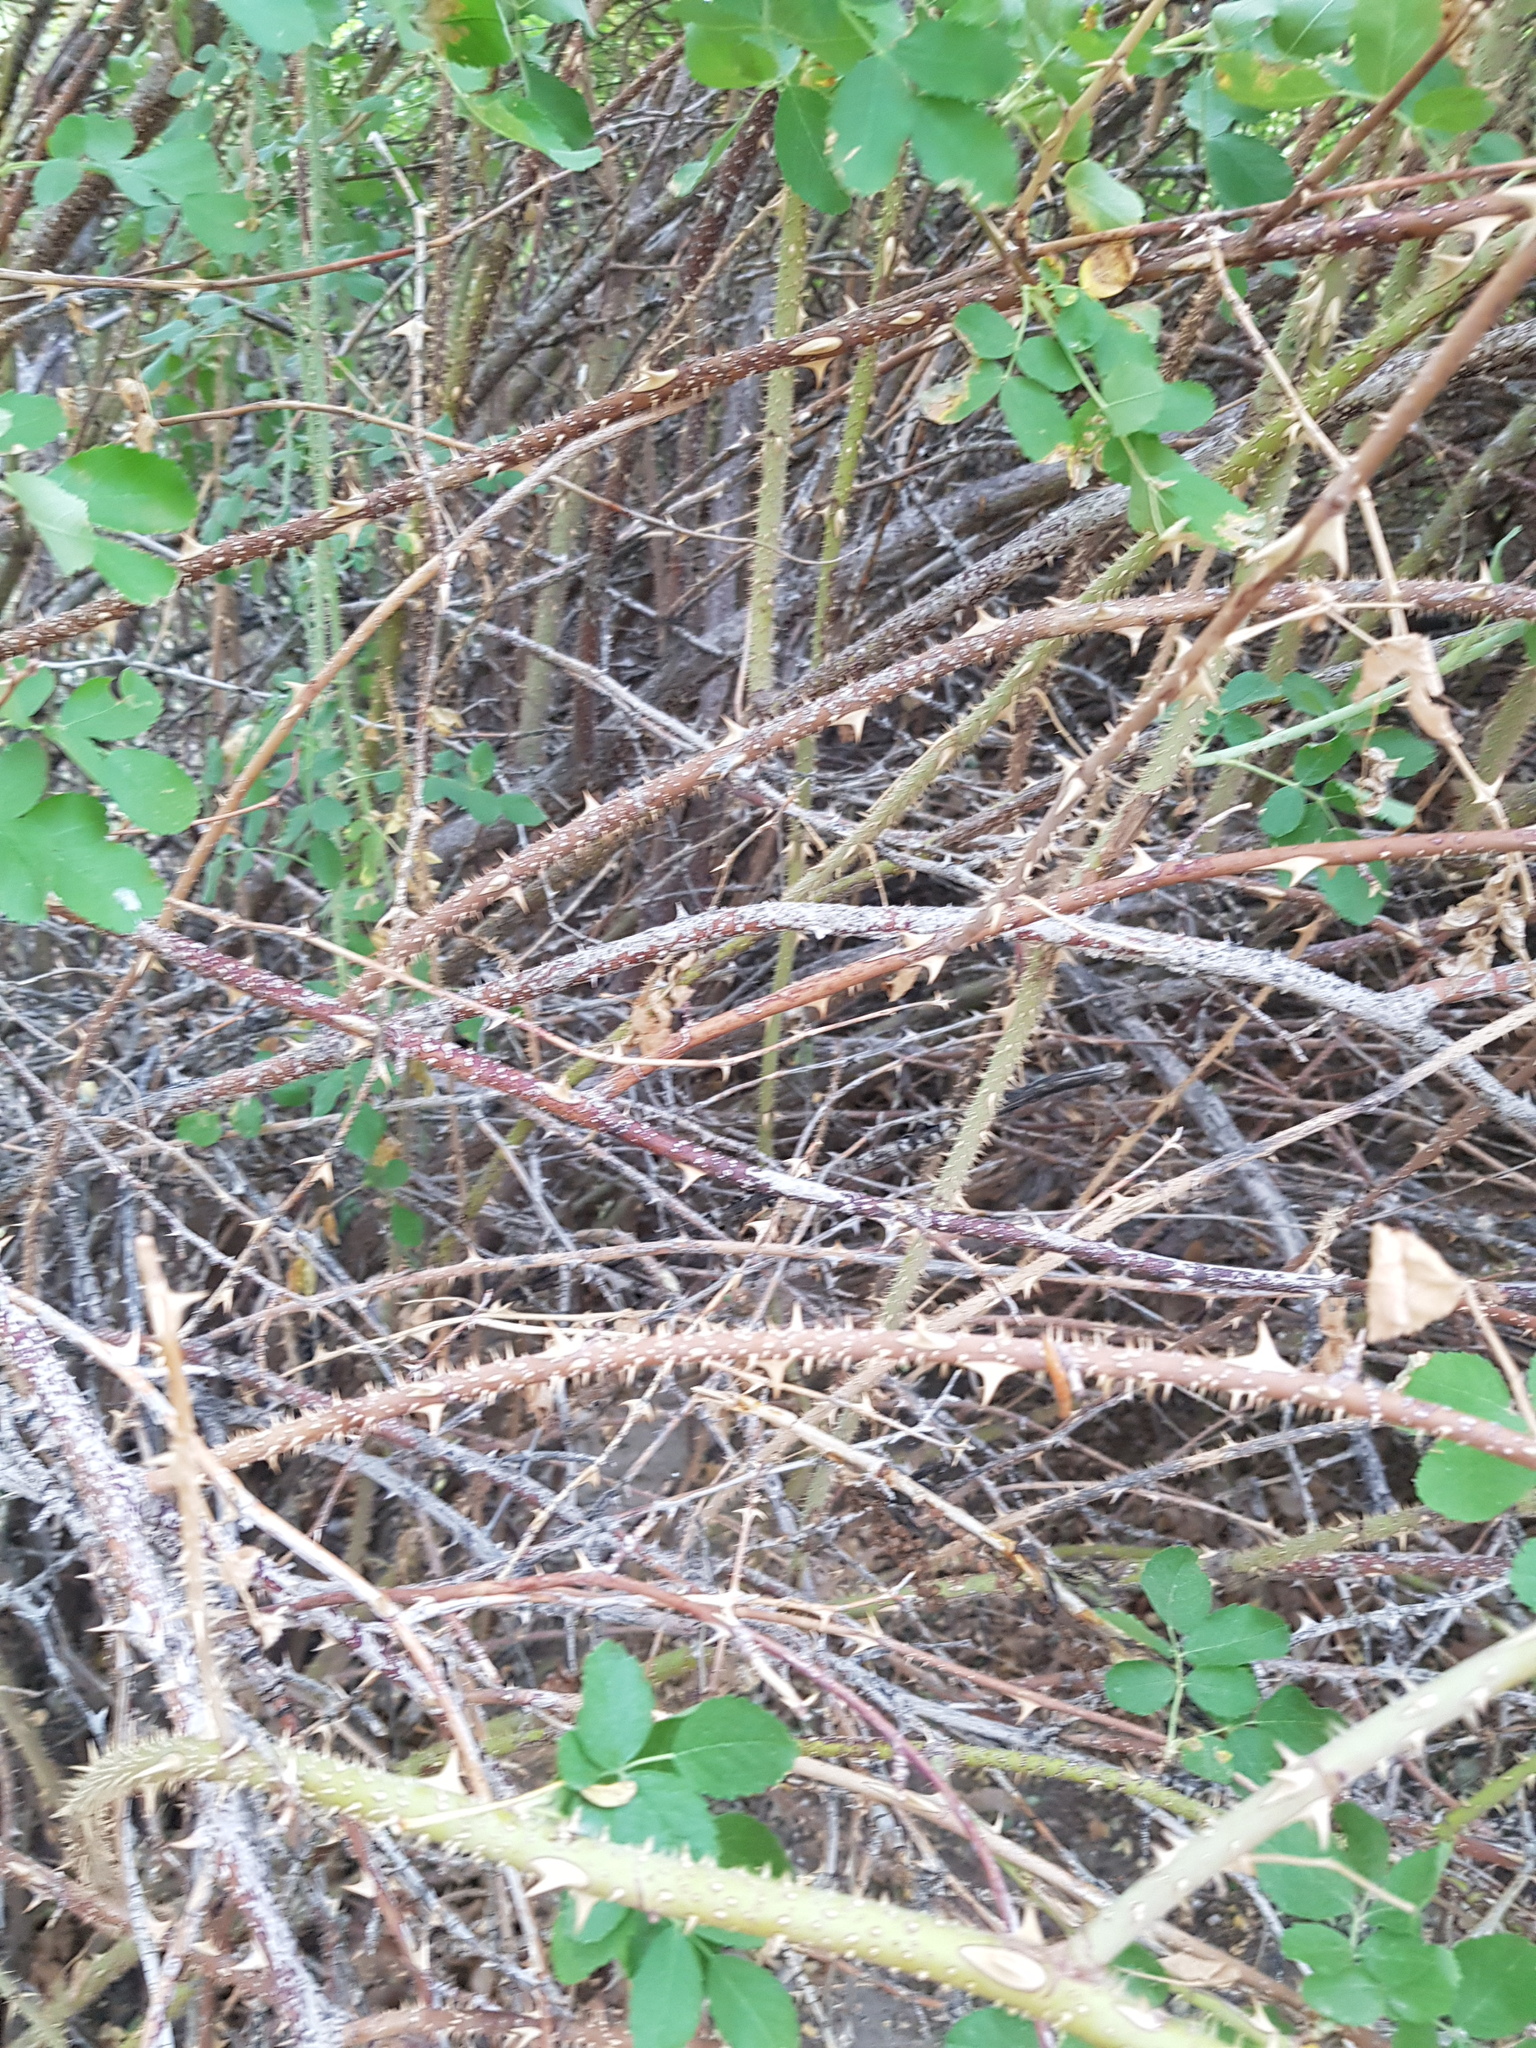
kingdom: Plantae
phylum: Tracheophyta
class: Magnoliopsida
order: Rosales
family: Rosaceae
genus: Rosa
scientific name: Rosa laxa
